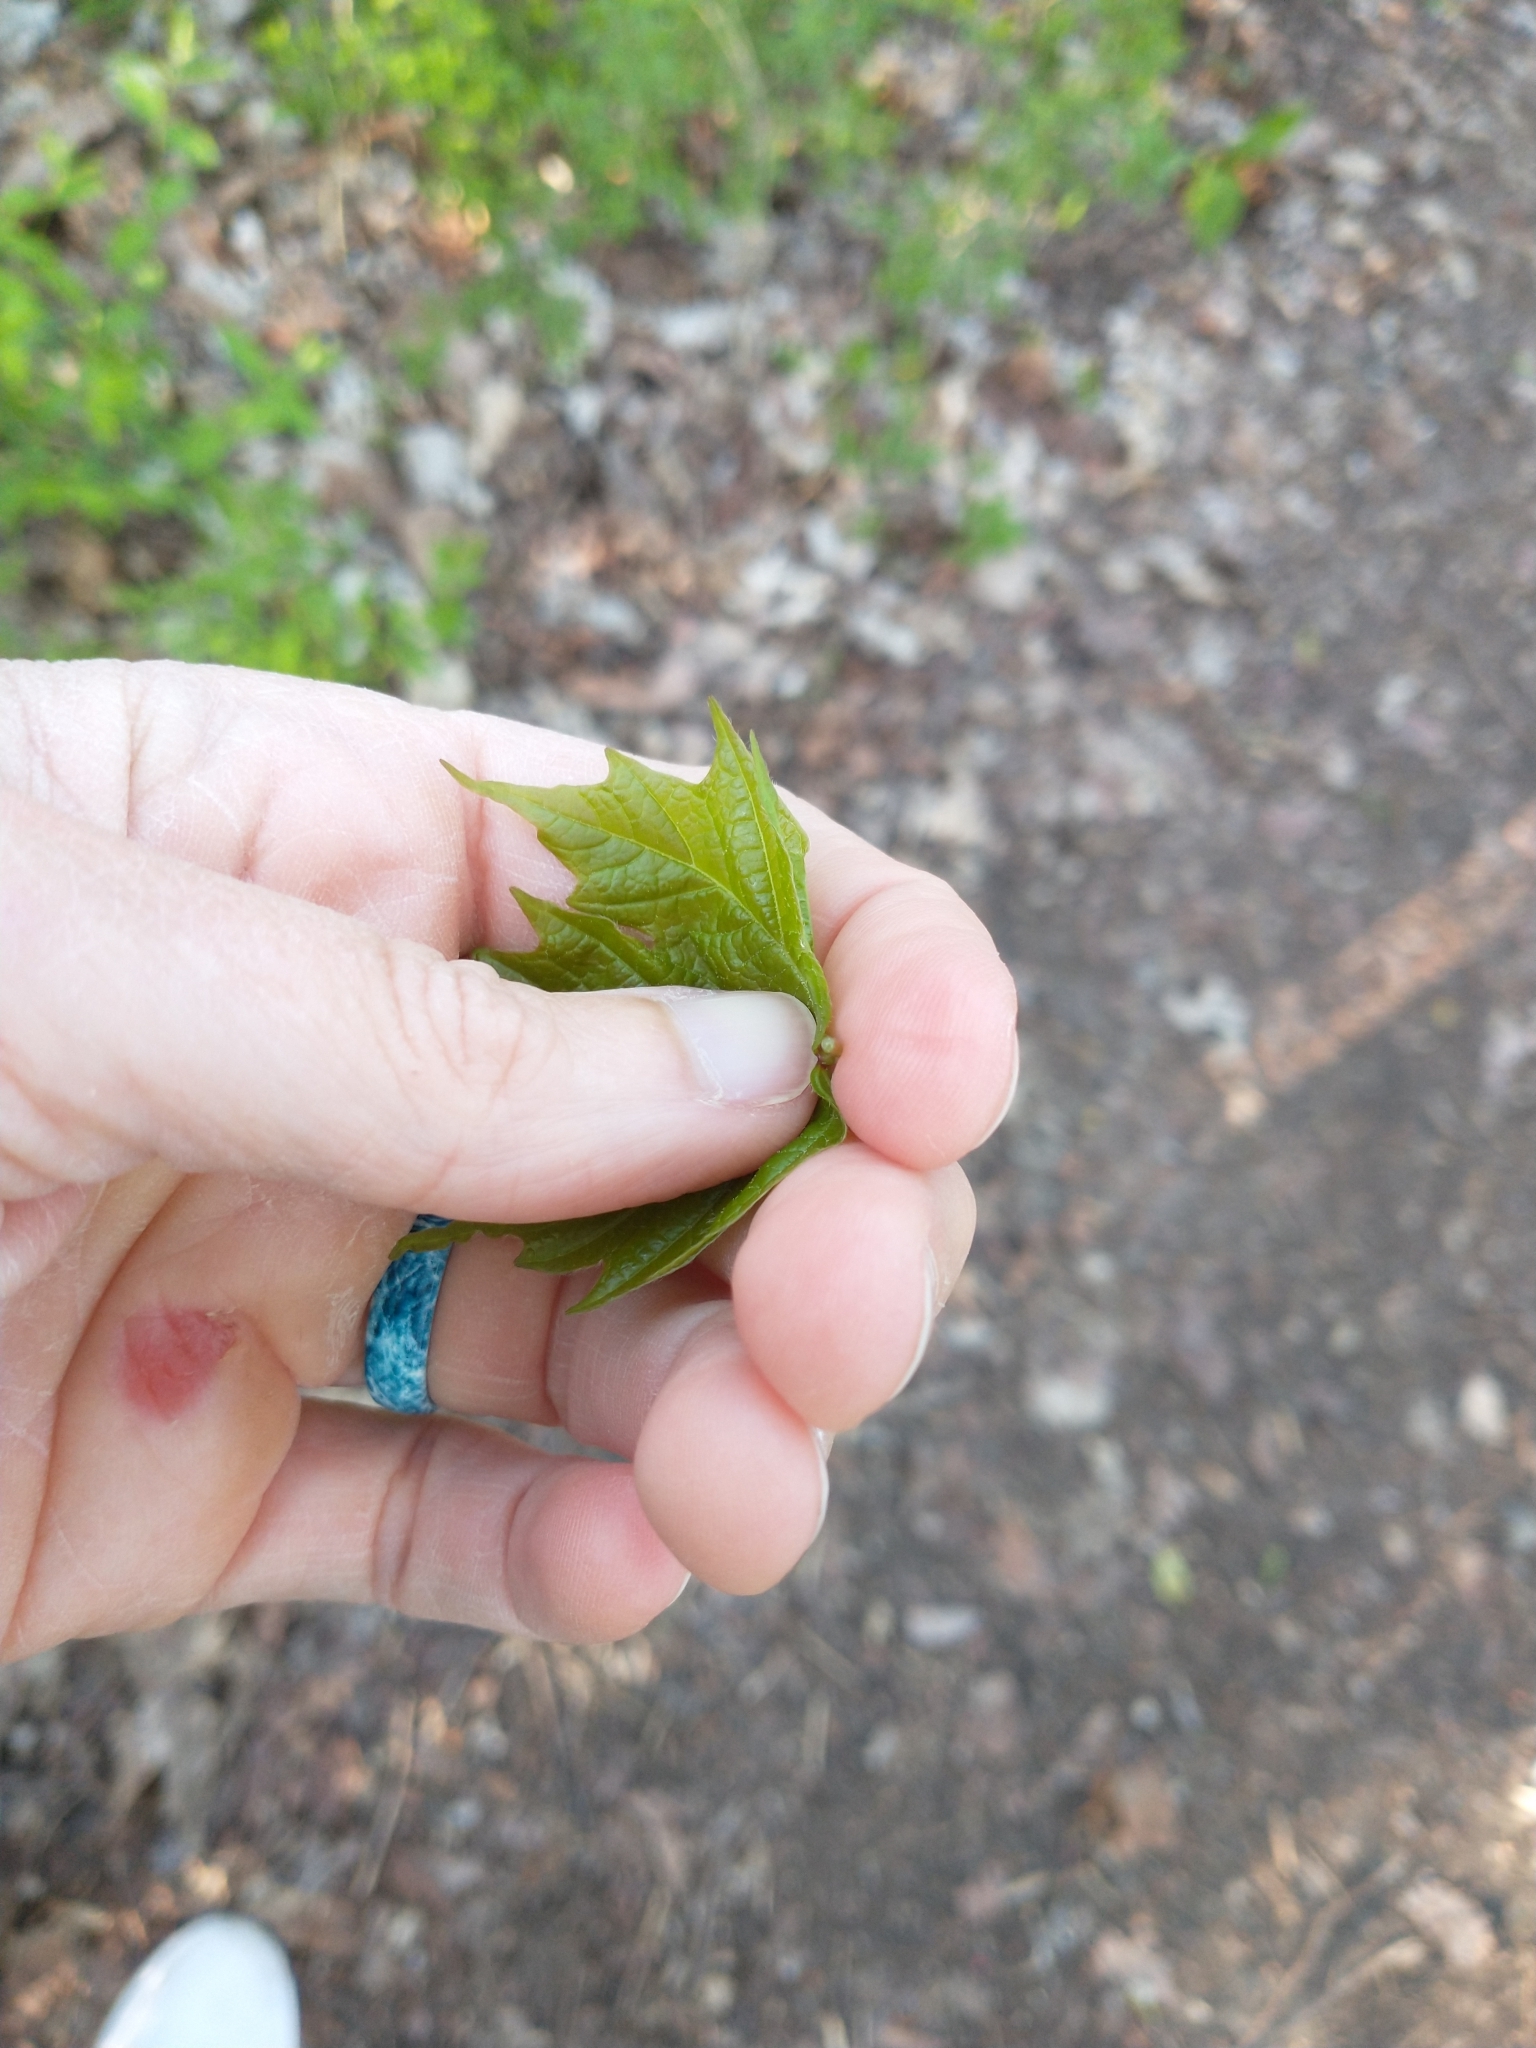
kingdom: Plantae
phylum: Tracheophyta
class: Magnoliopsida
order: Sapindales
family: Sapindaceae
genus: Acer
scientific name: Acer saccharum
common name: Sugar maple
